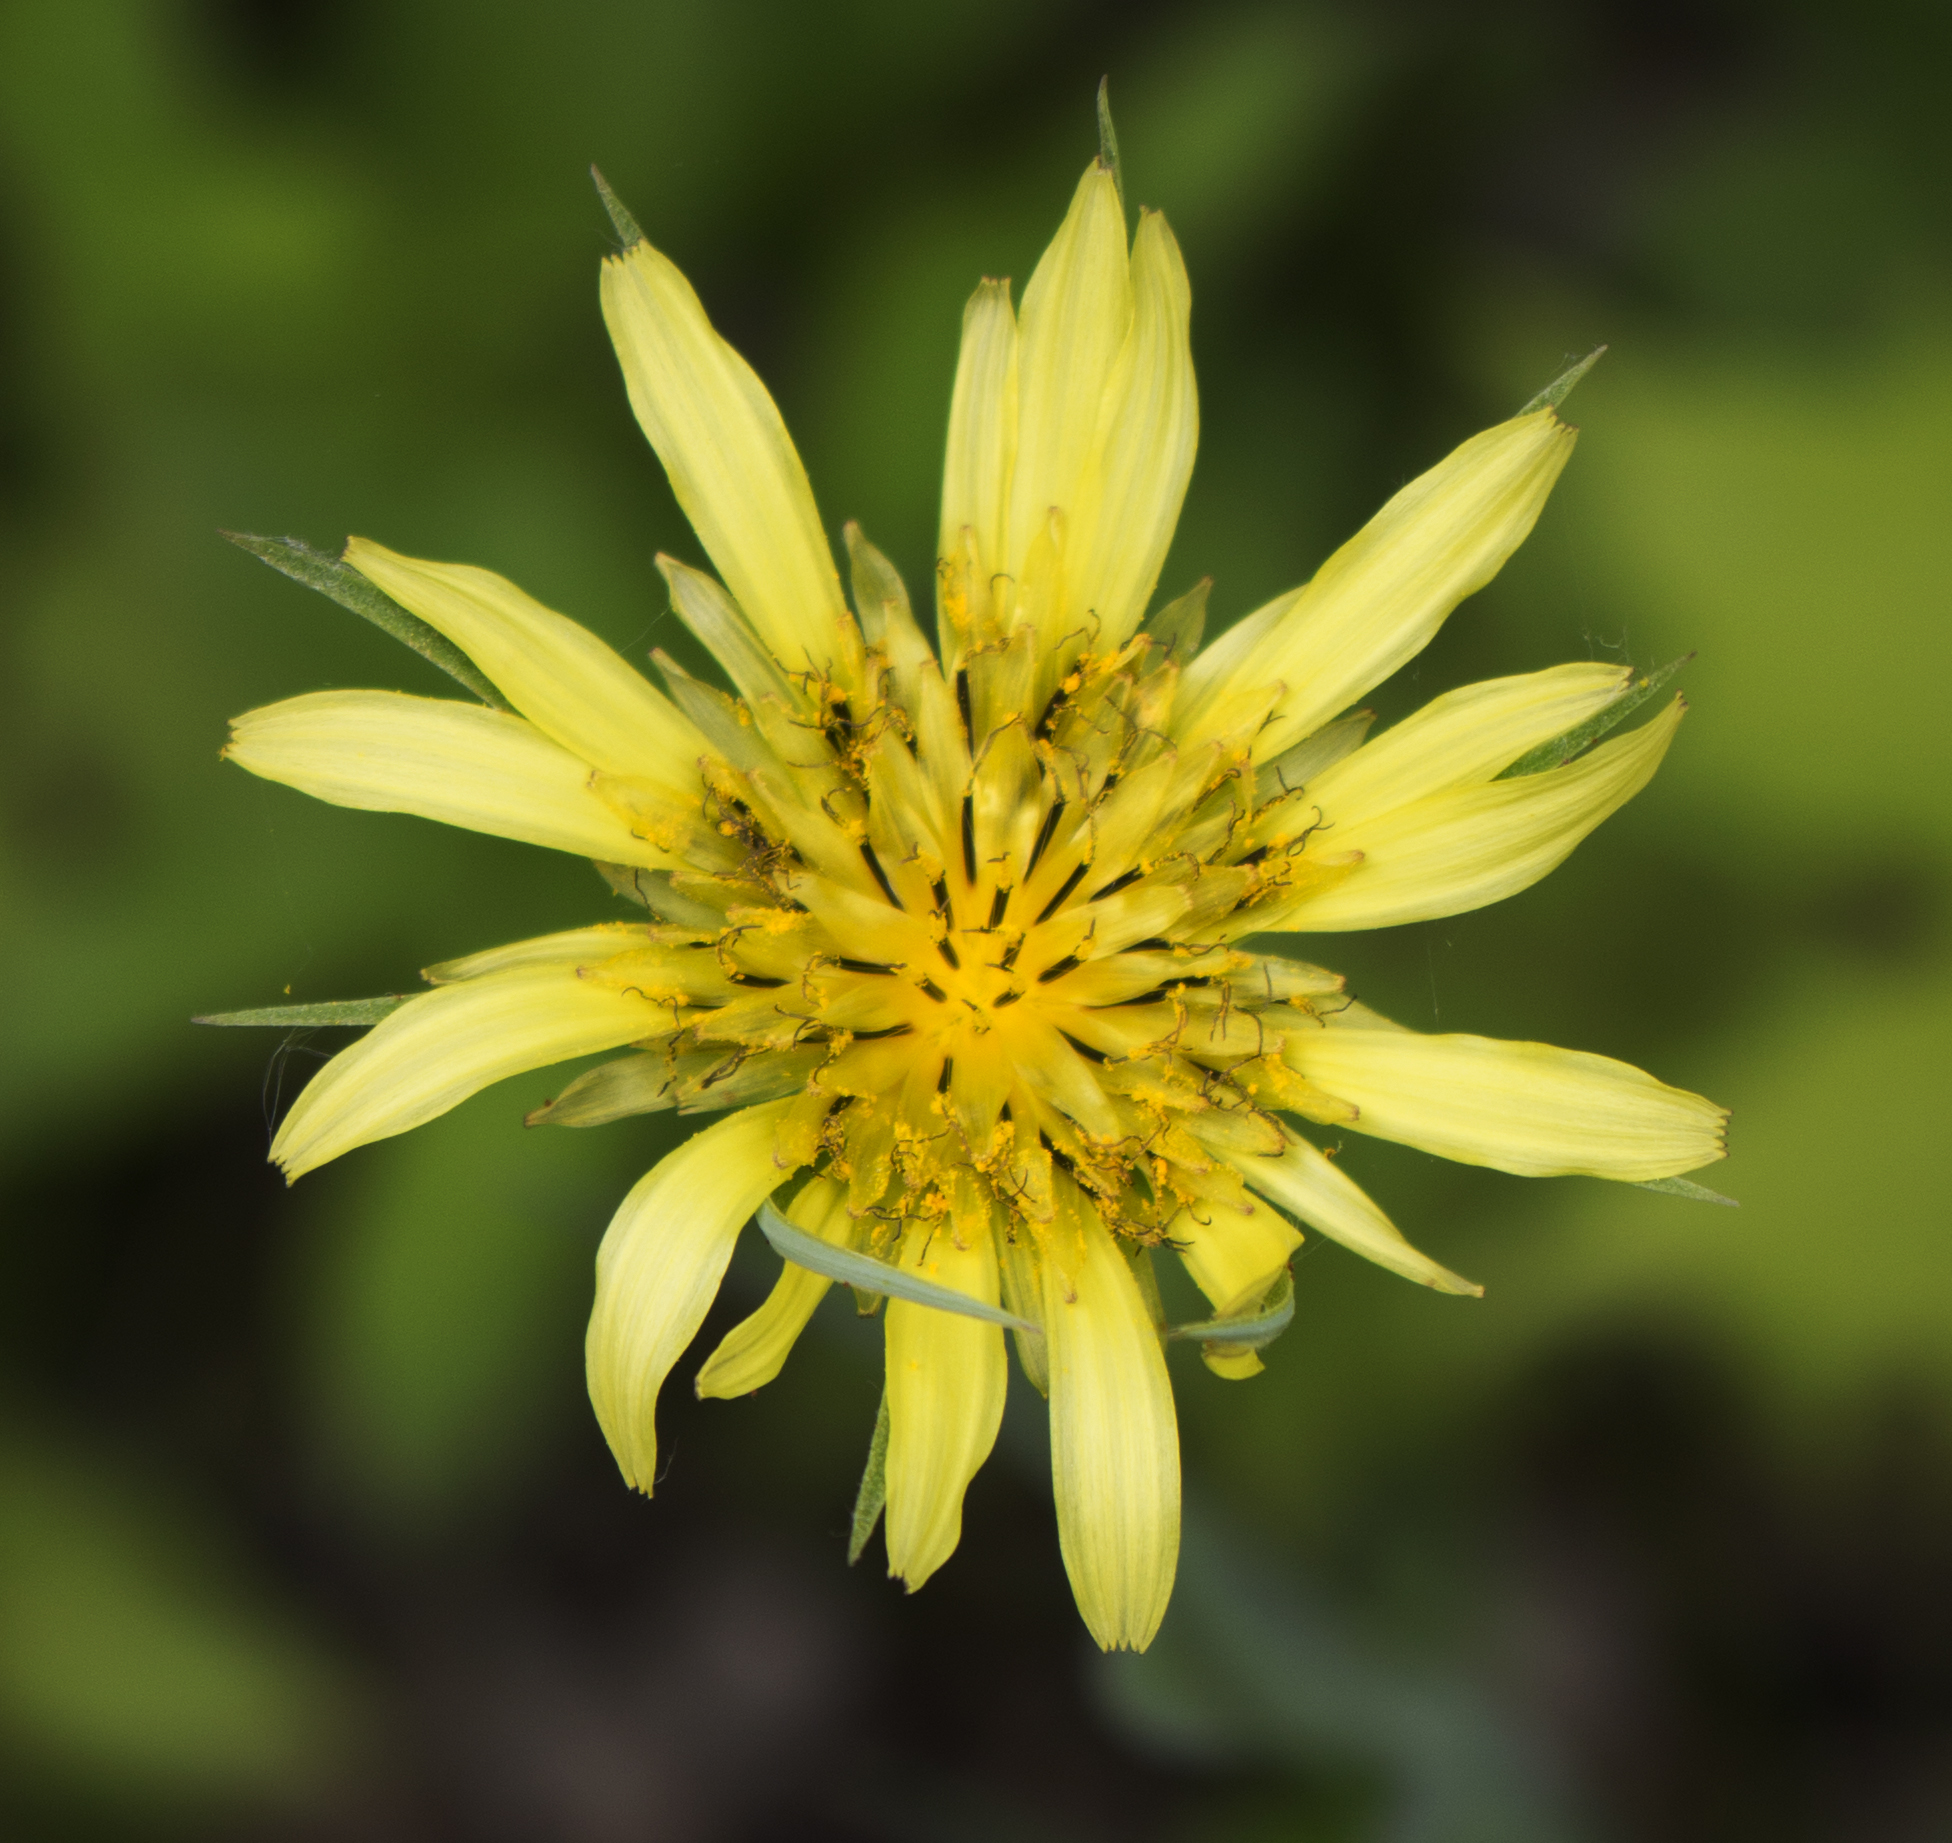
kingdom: Plantae
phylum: Tracheophyta
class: Magnoliopsida
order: Asterales
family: Asteraceae
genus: Tragopogon
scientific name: Tragopogon dubius
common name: Yellow salsify
